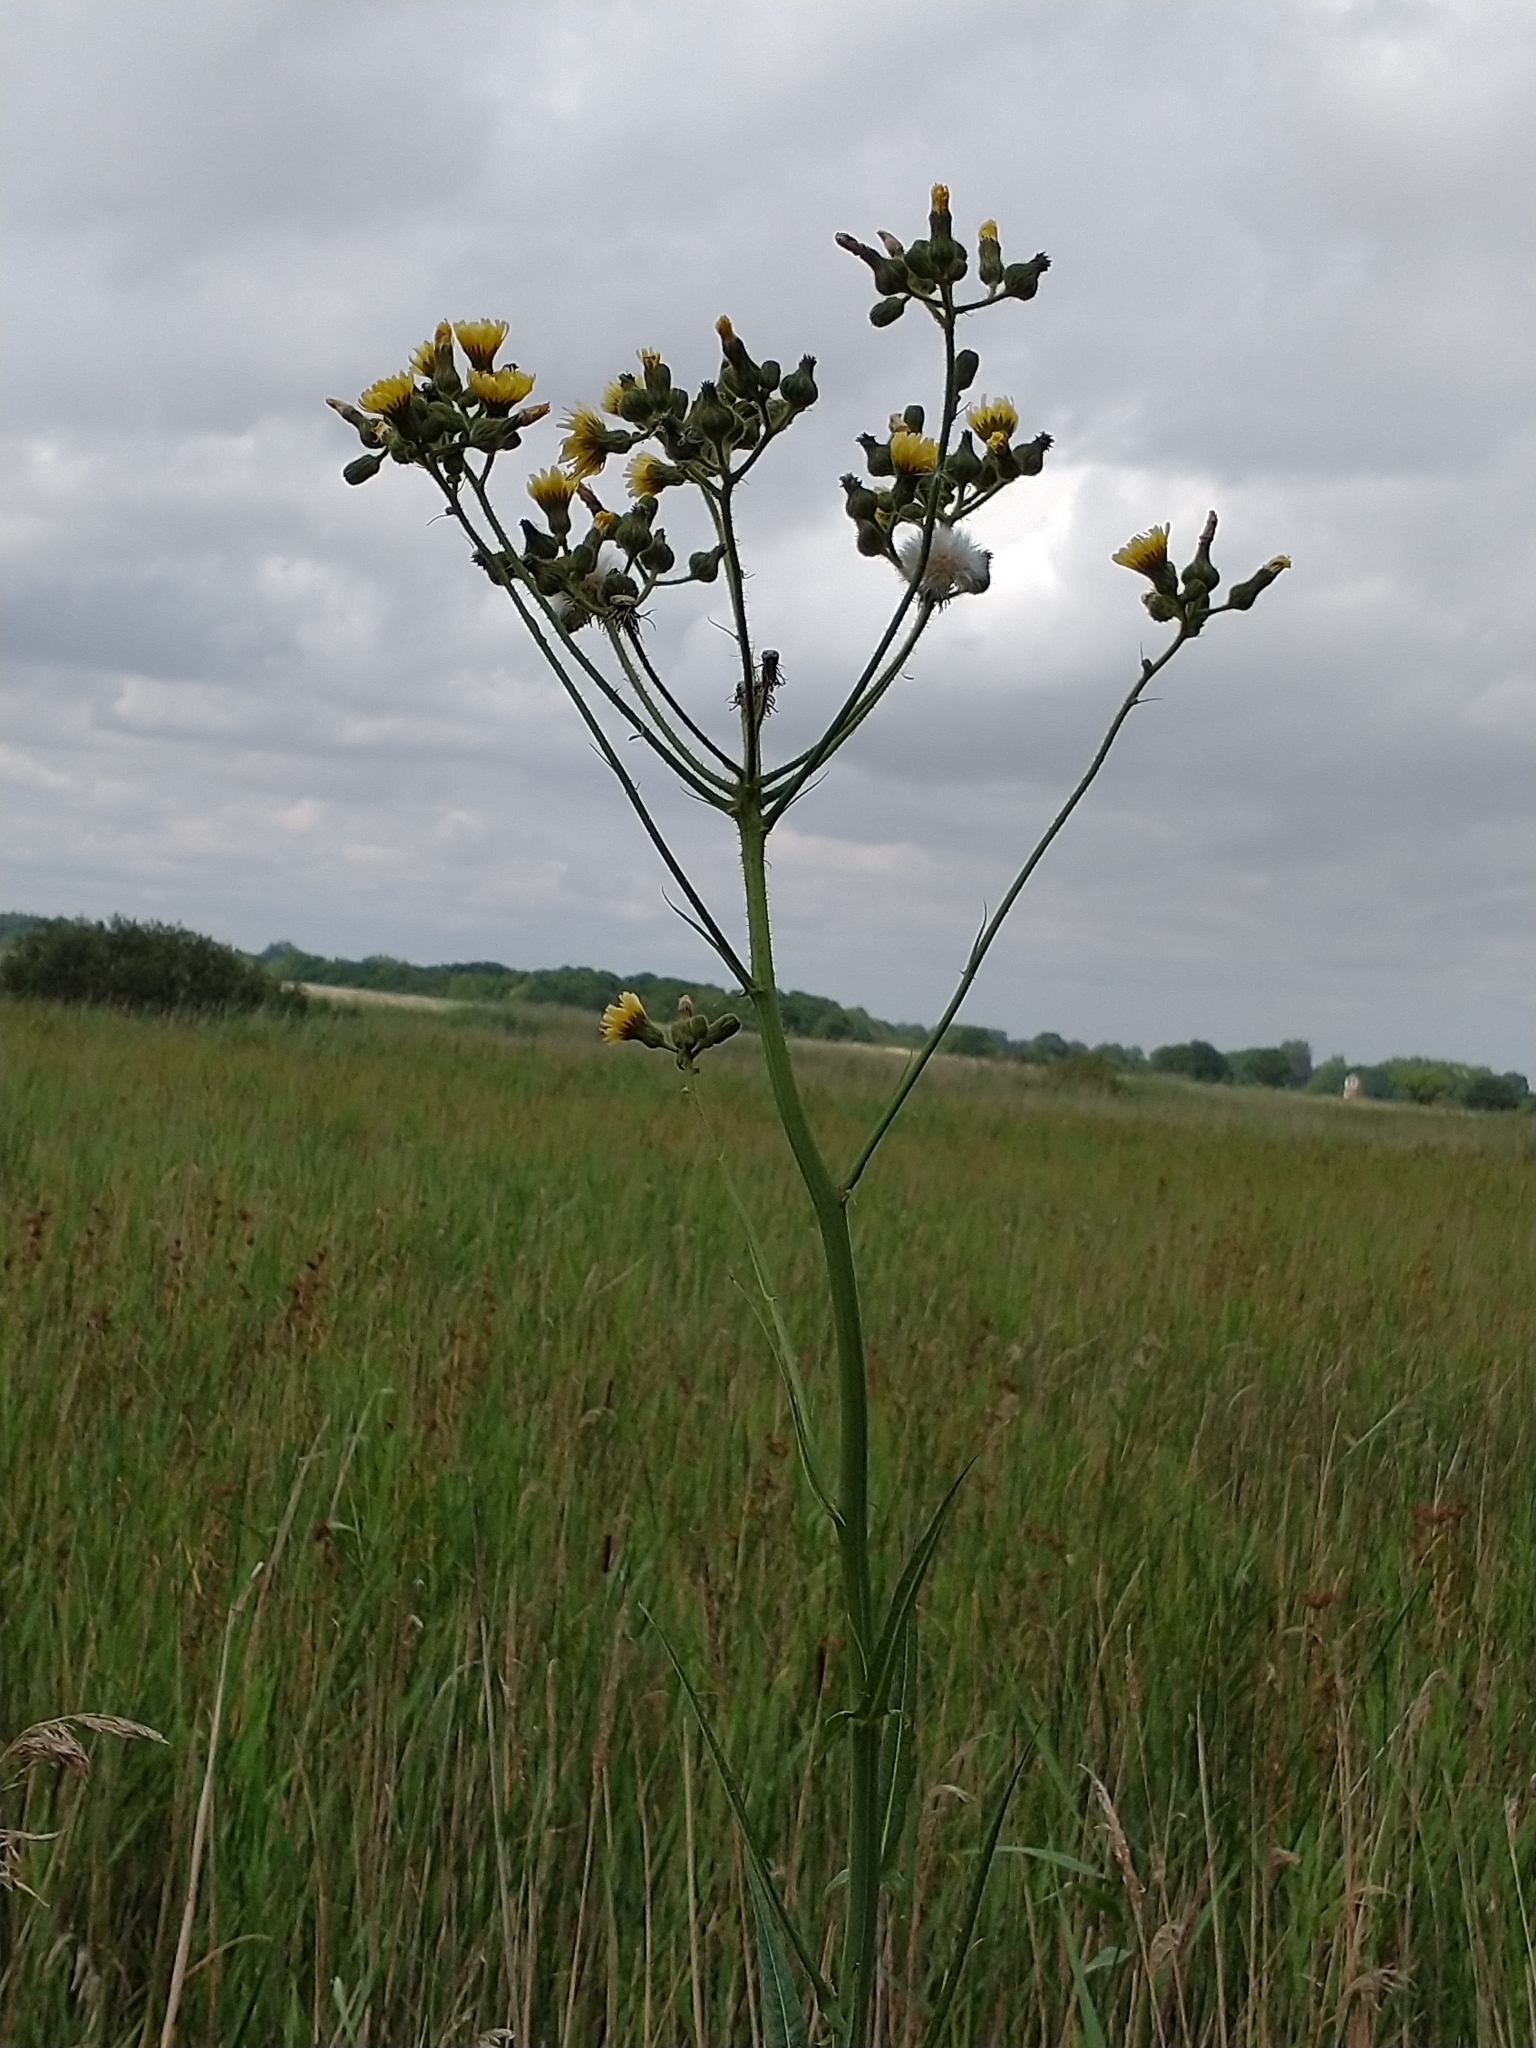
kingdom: Plantae
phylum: Tracheophyta
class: Magnoliopsida
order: Asterales
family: Asteraceae
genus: Sonchus
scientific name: Sonchus palustris
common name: Marsh sow-thistle
